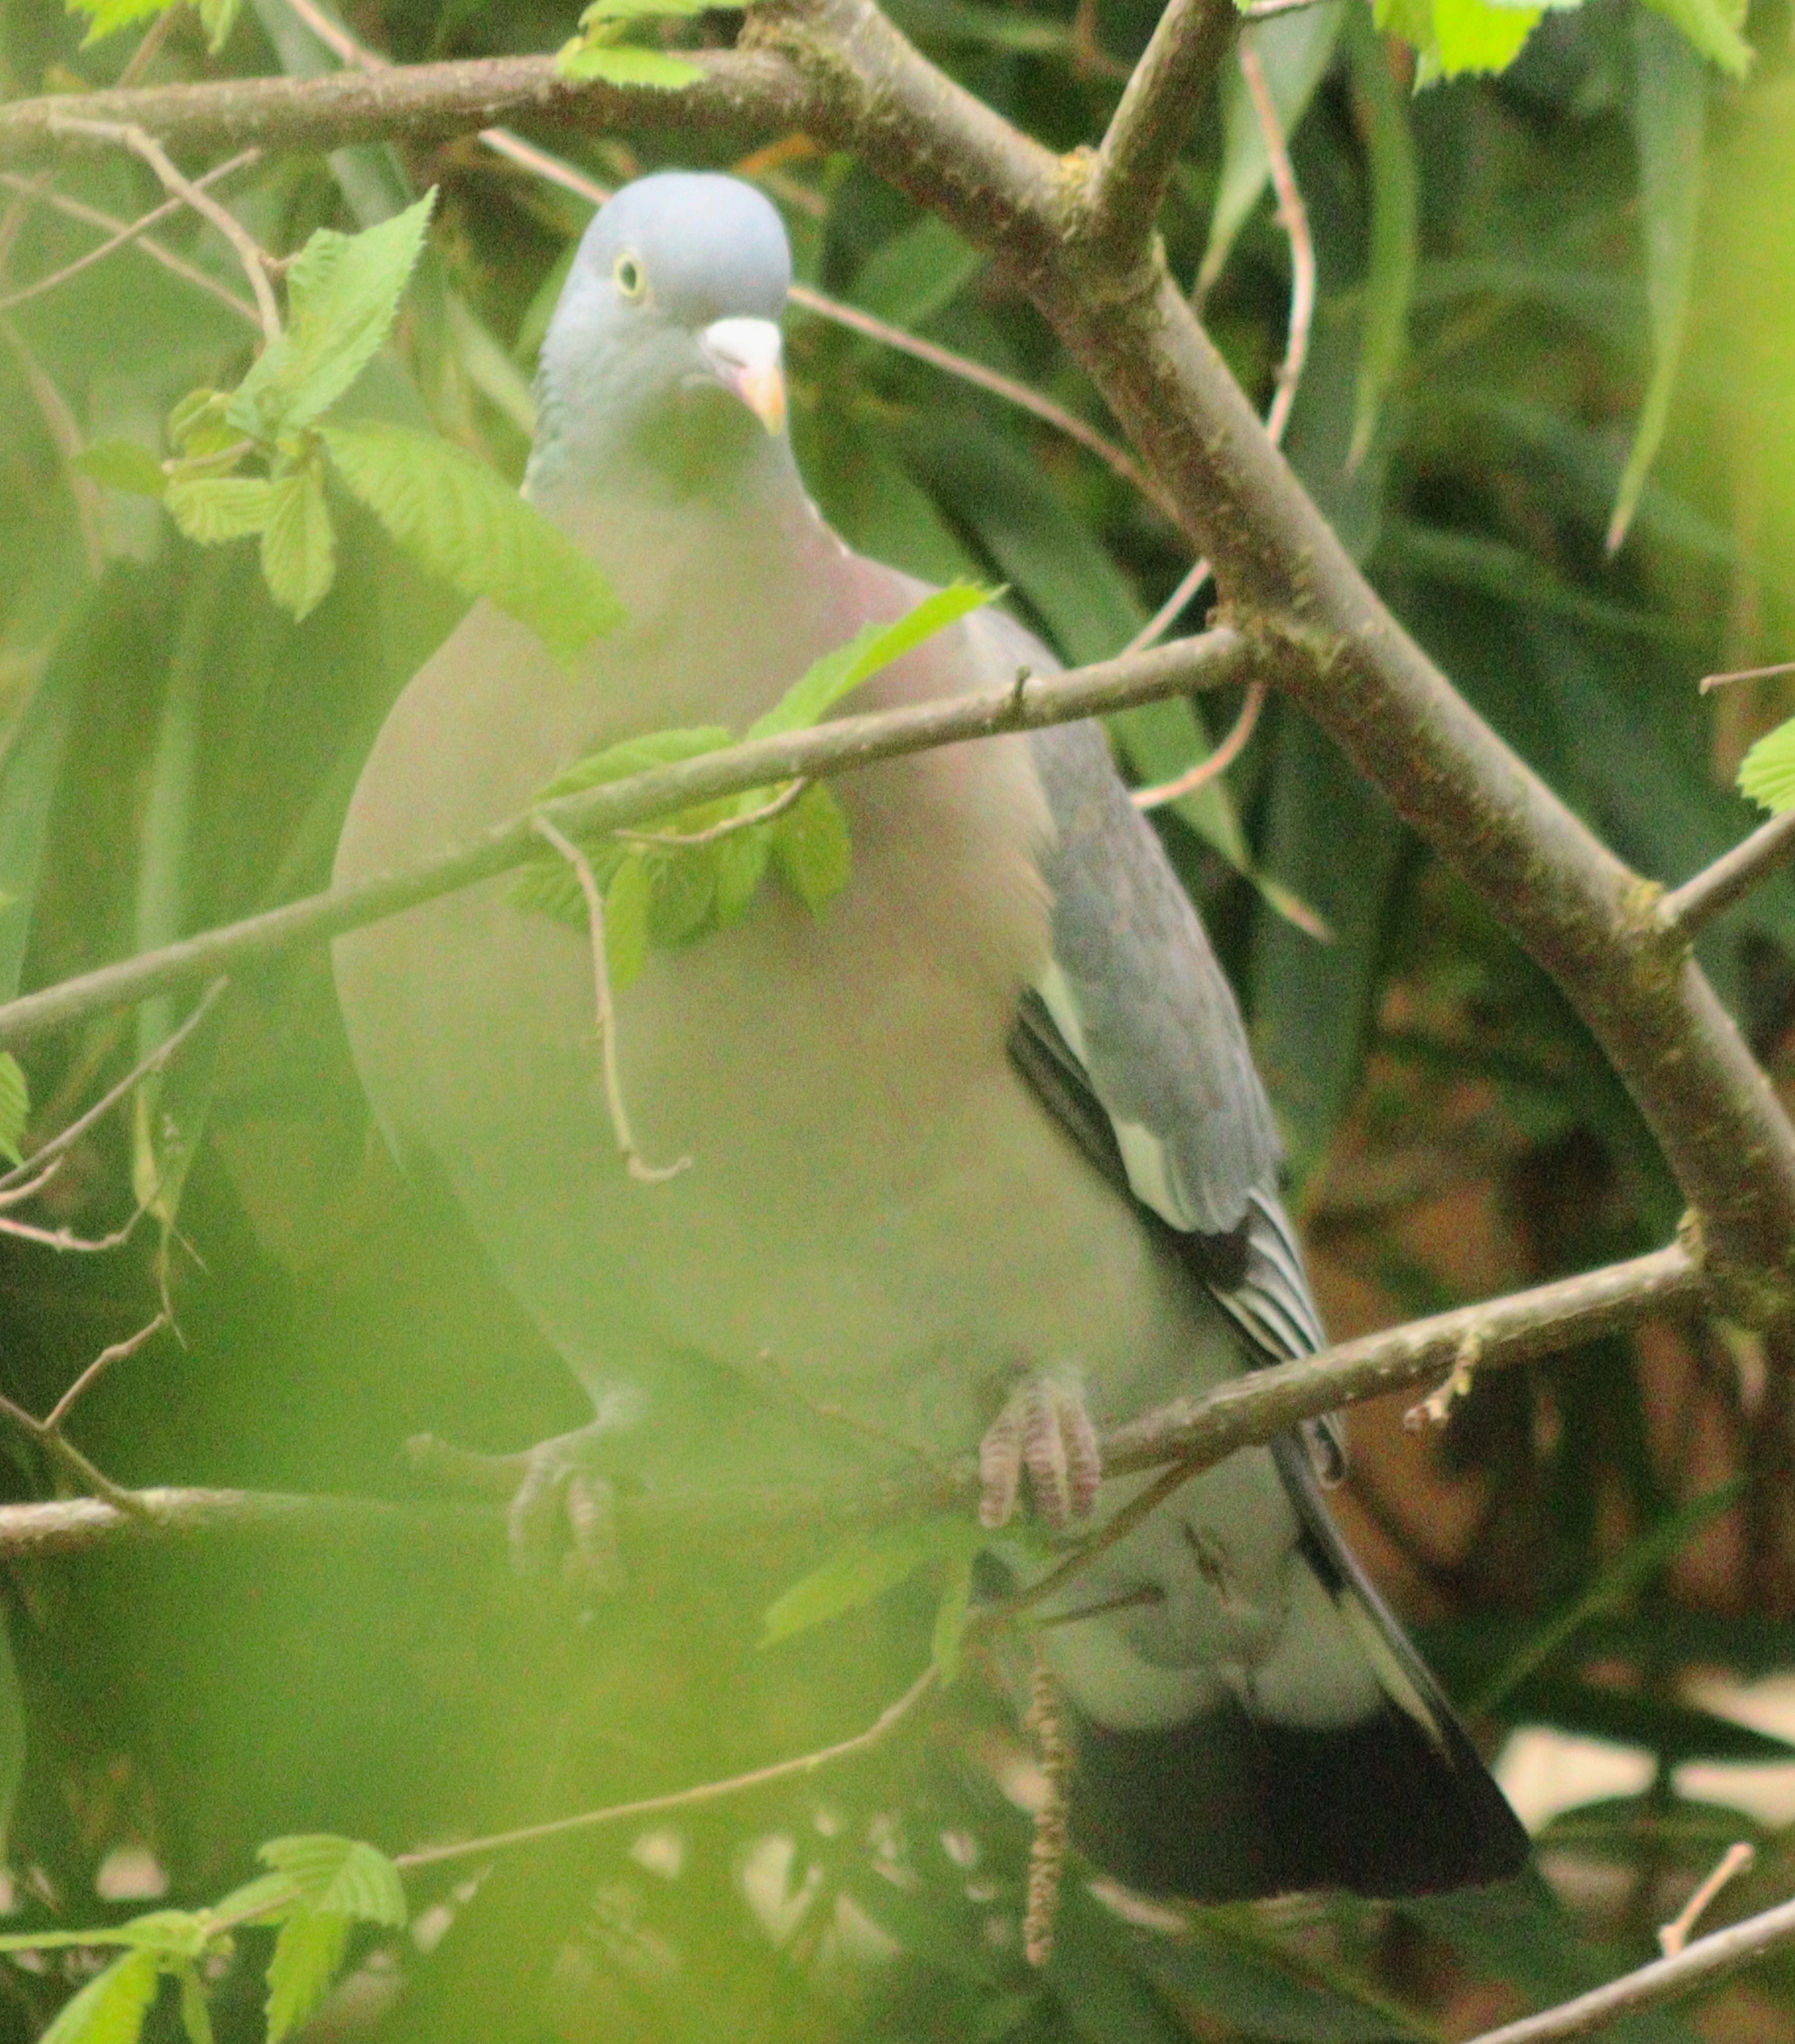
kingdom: Animalia
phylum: Chordata
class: Aves
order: Columbiformes
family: Columbidae
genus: Columba
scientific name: Columba palumbus
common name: Common wood pigeon
